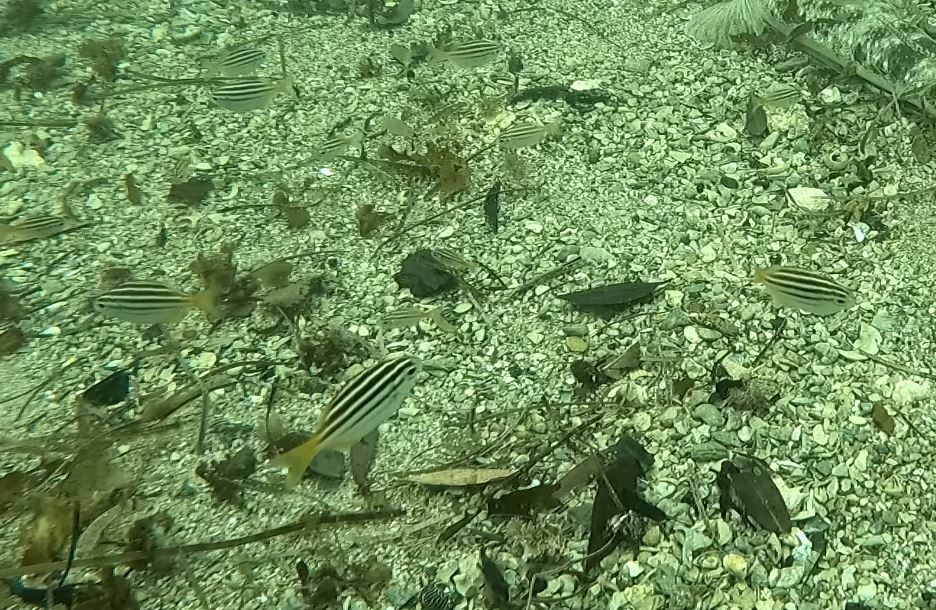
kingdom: Animalia
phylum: Chordata
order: Perciformes
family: Kyphosidae
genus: Atypichthys
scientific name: Atypichthys strigatus
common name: Australian mado
